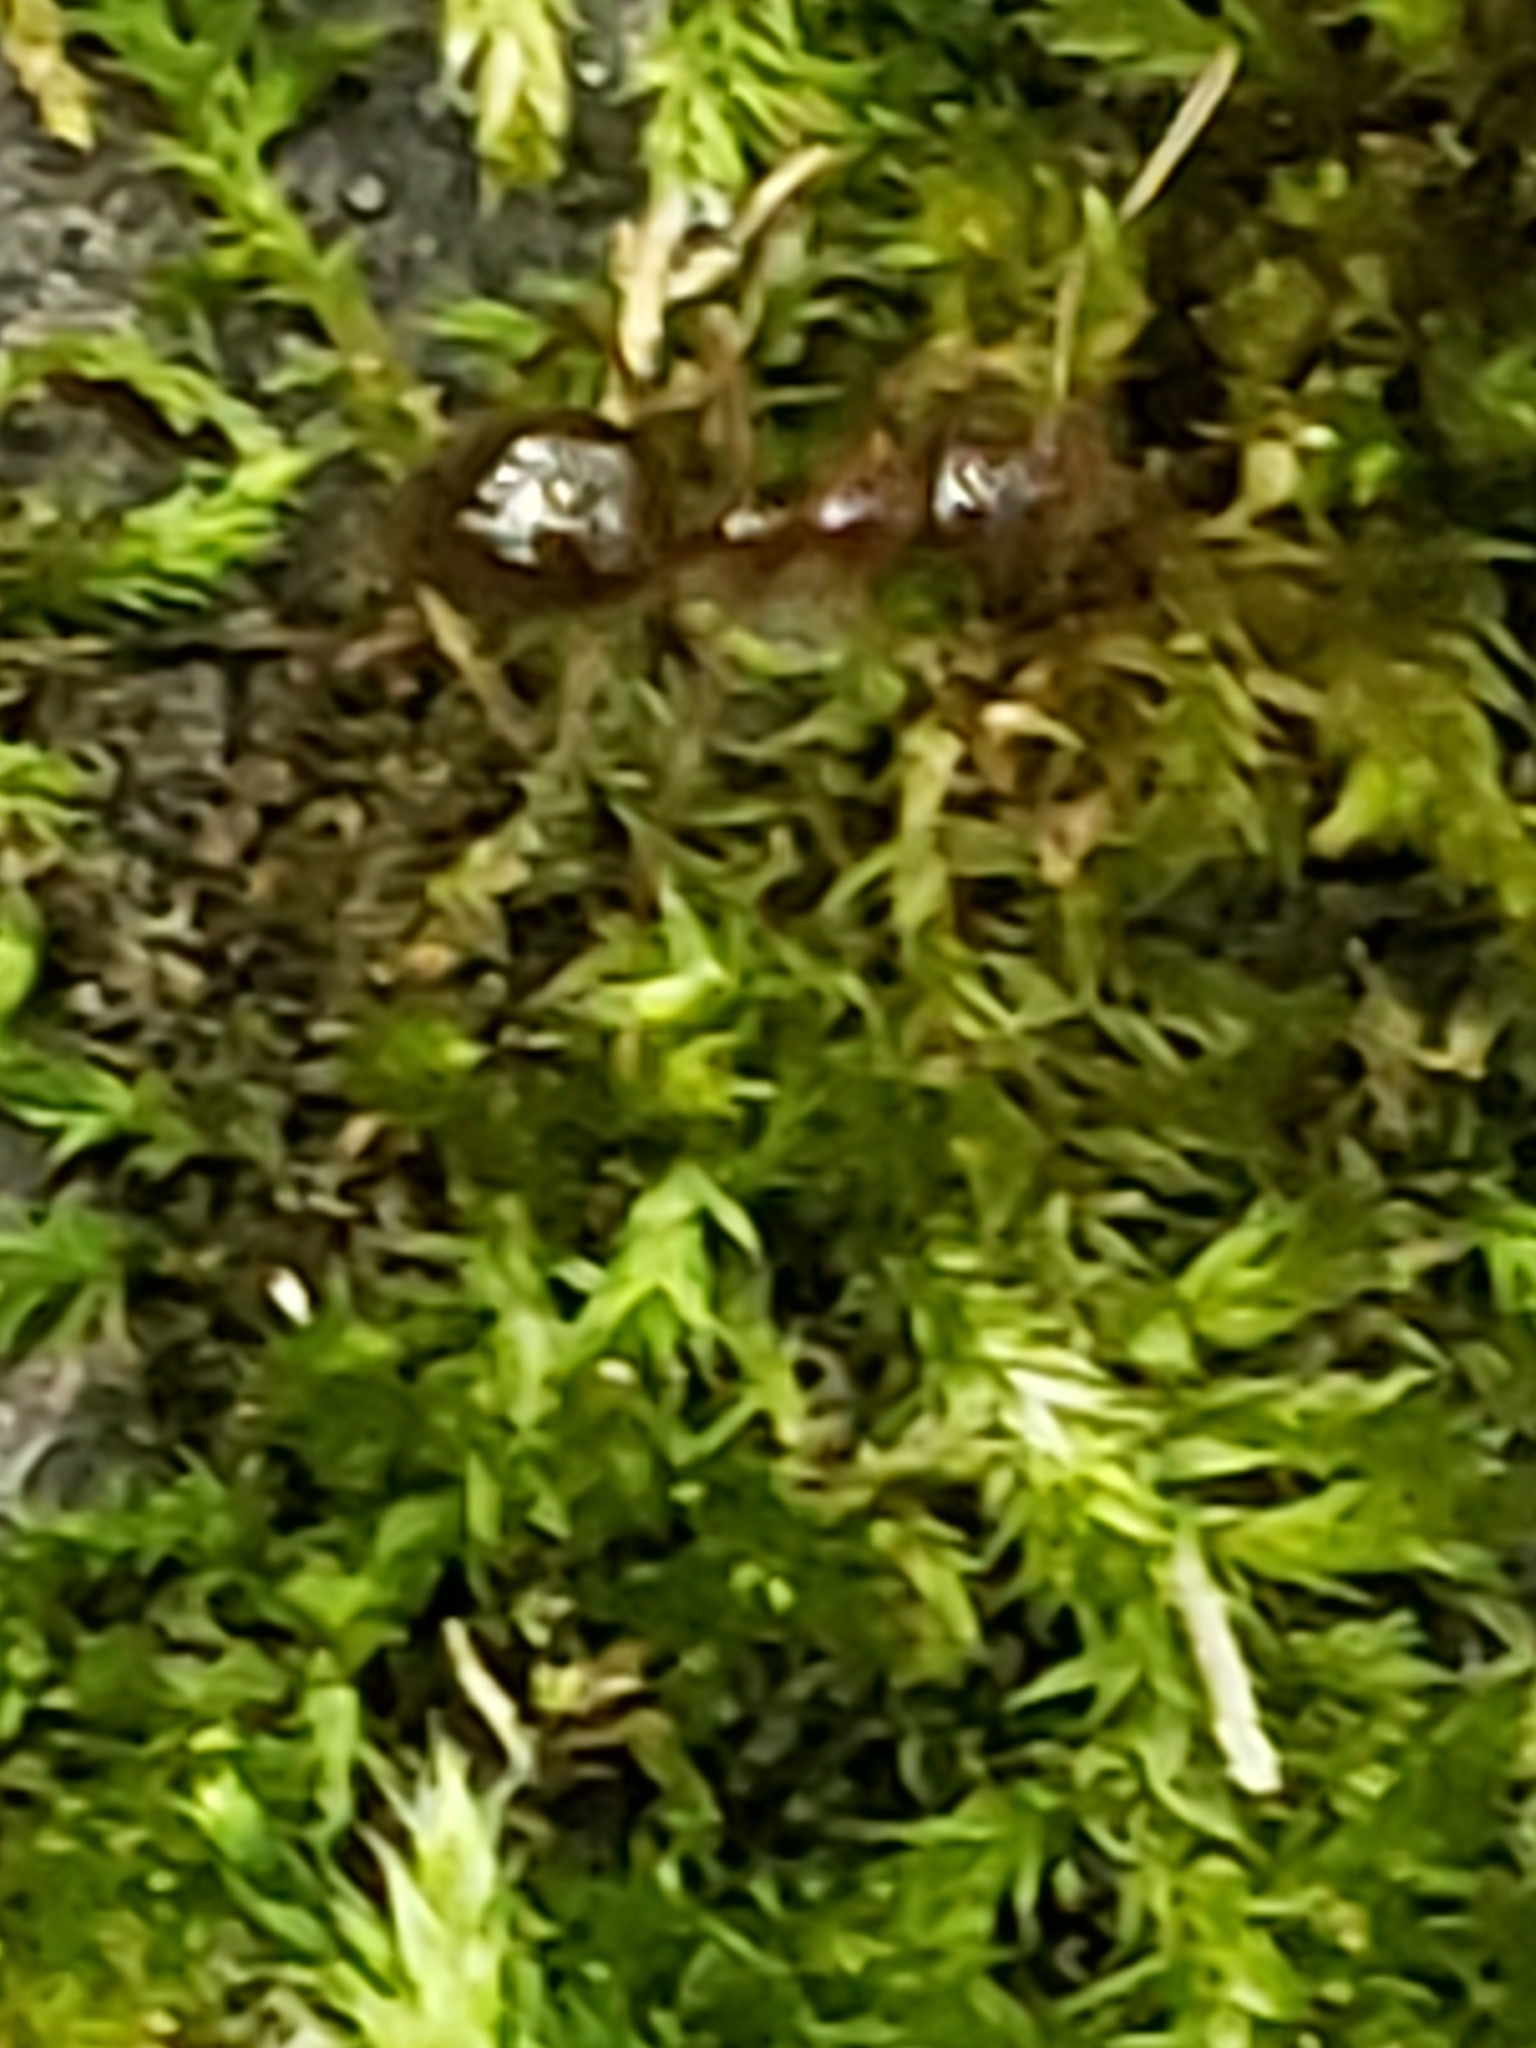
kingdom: Animalia
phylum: Arthropoda
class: Insecta
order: Hymenoptera
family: Formicidae
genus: Prenolepis
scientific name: Prenolepis imparis
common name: Small honey ant
